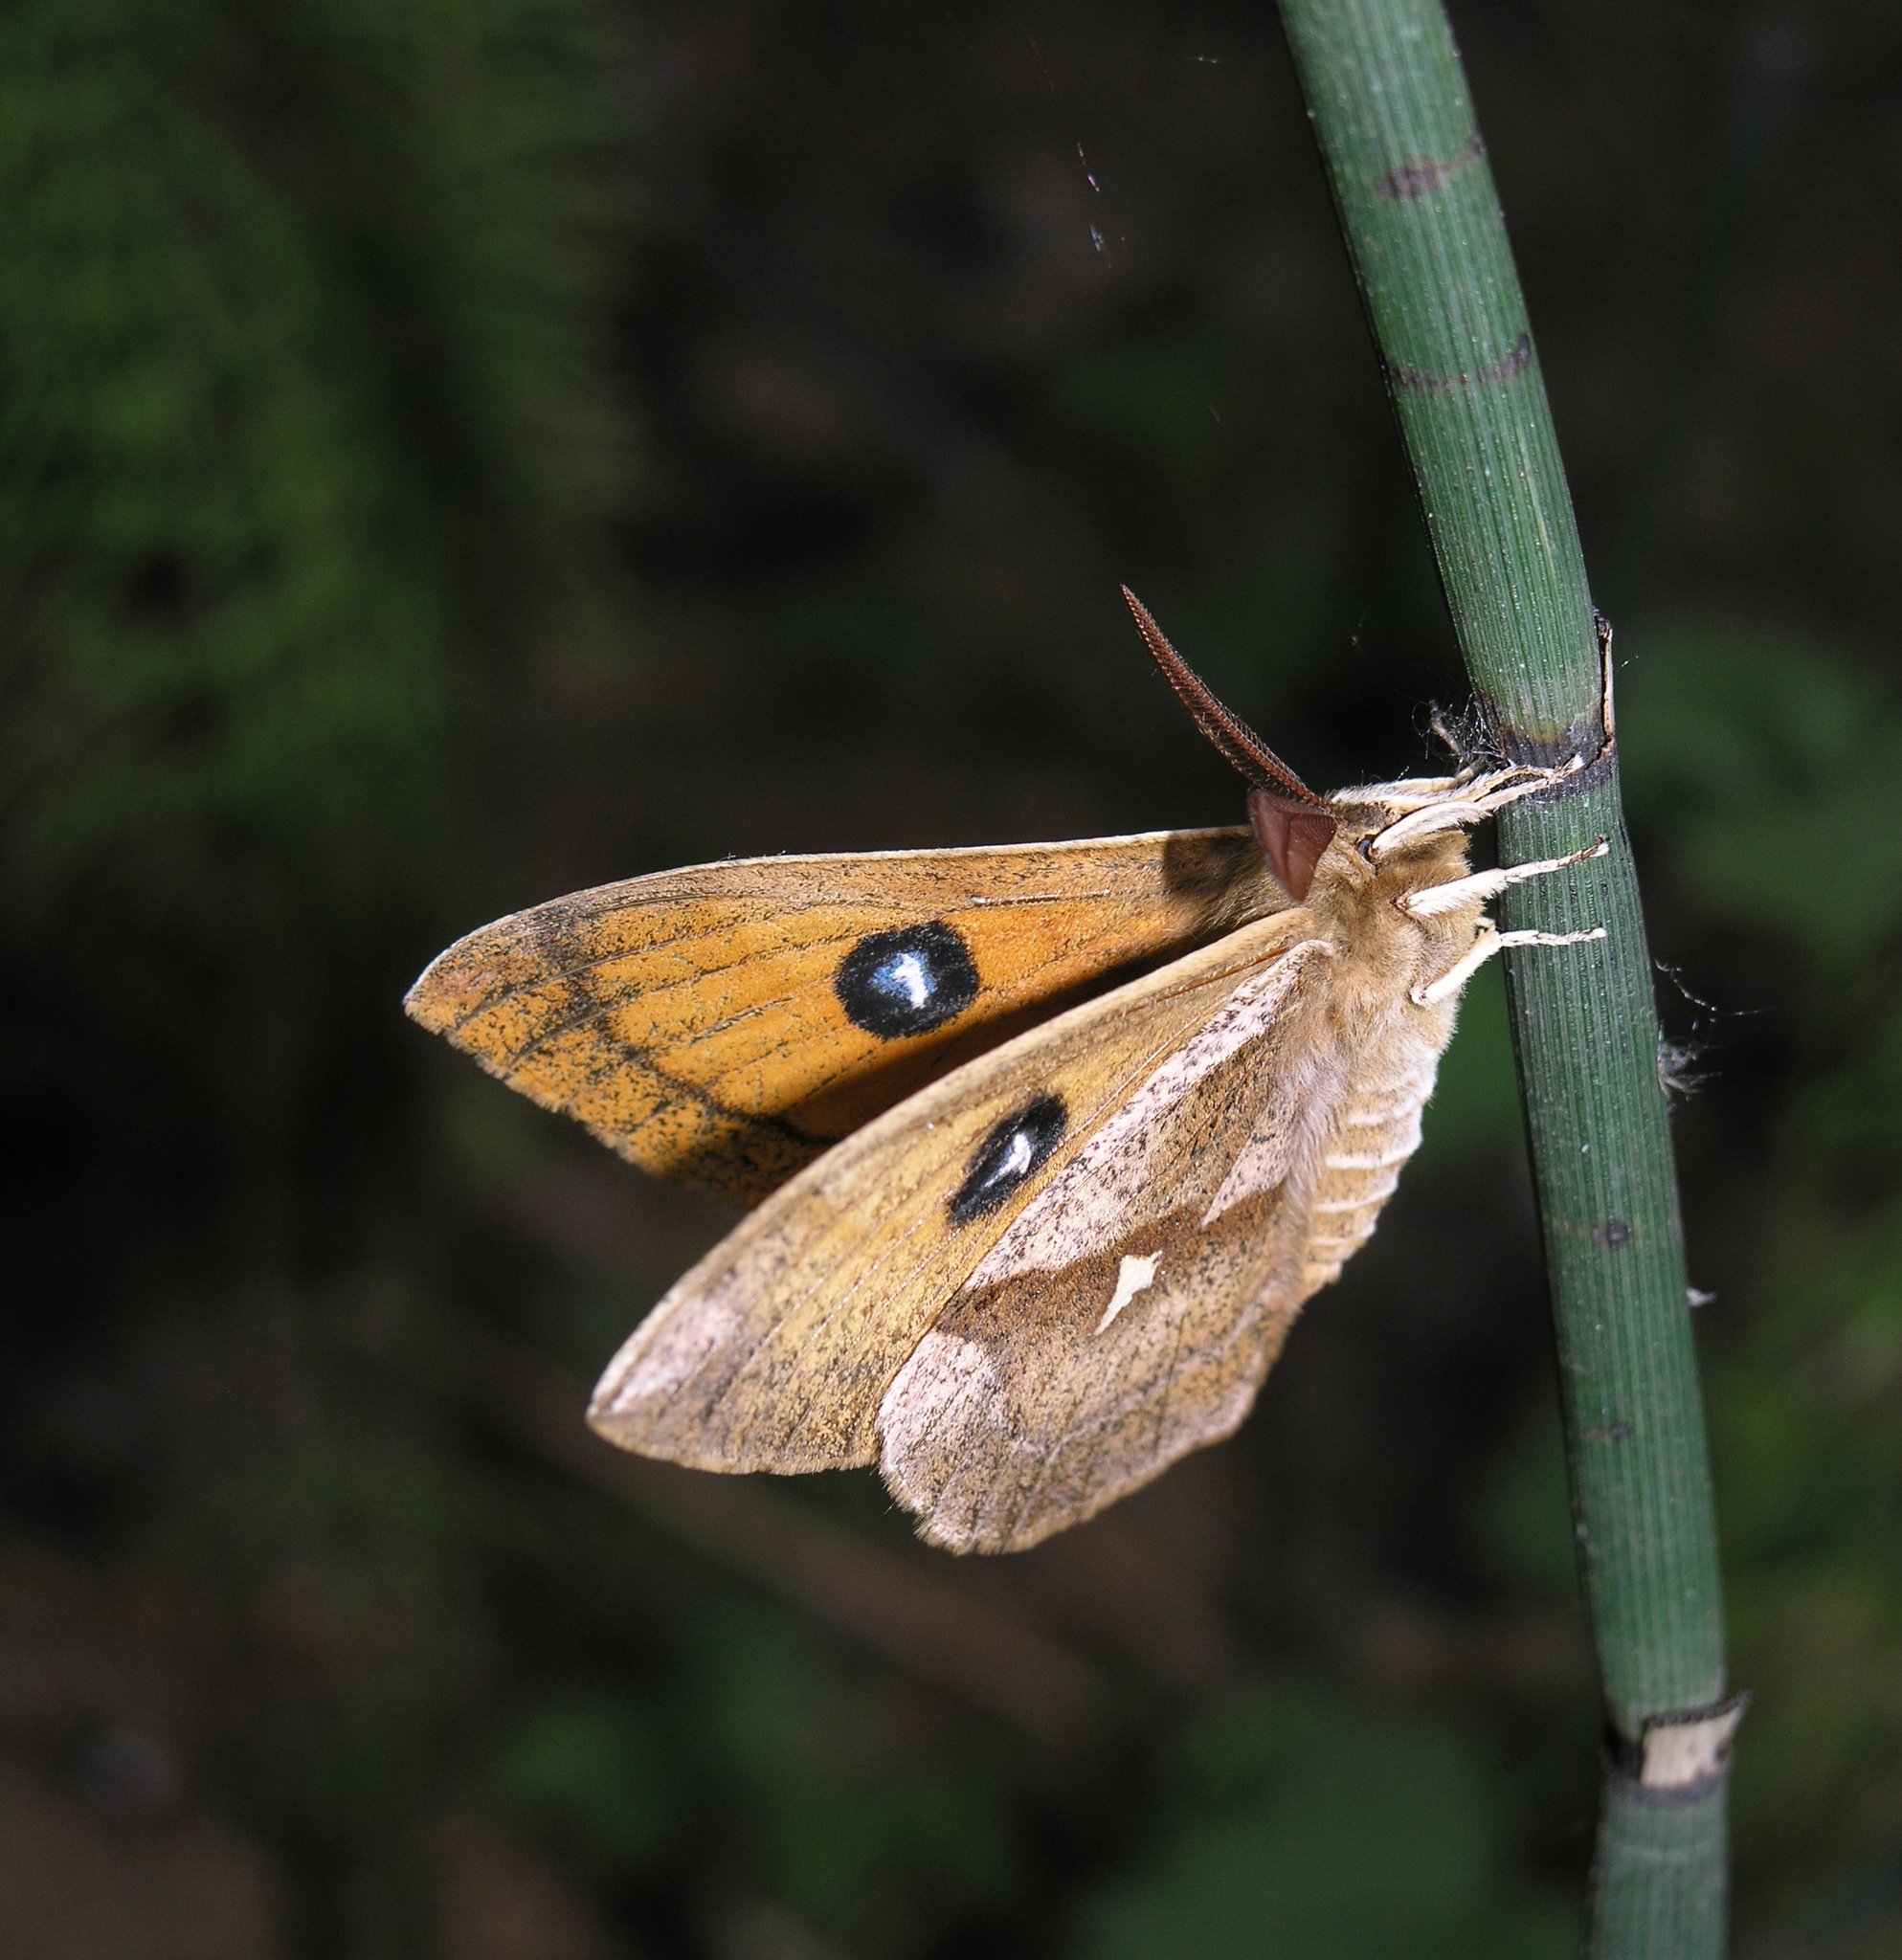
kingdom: Plantae
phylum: Tracheophyta
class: Polypodiopsida
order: Equisetales
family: Equisetaceae
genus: Equisetum
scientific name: Equisetum hyemale
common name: Rough horsetail
